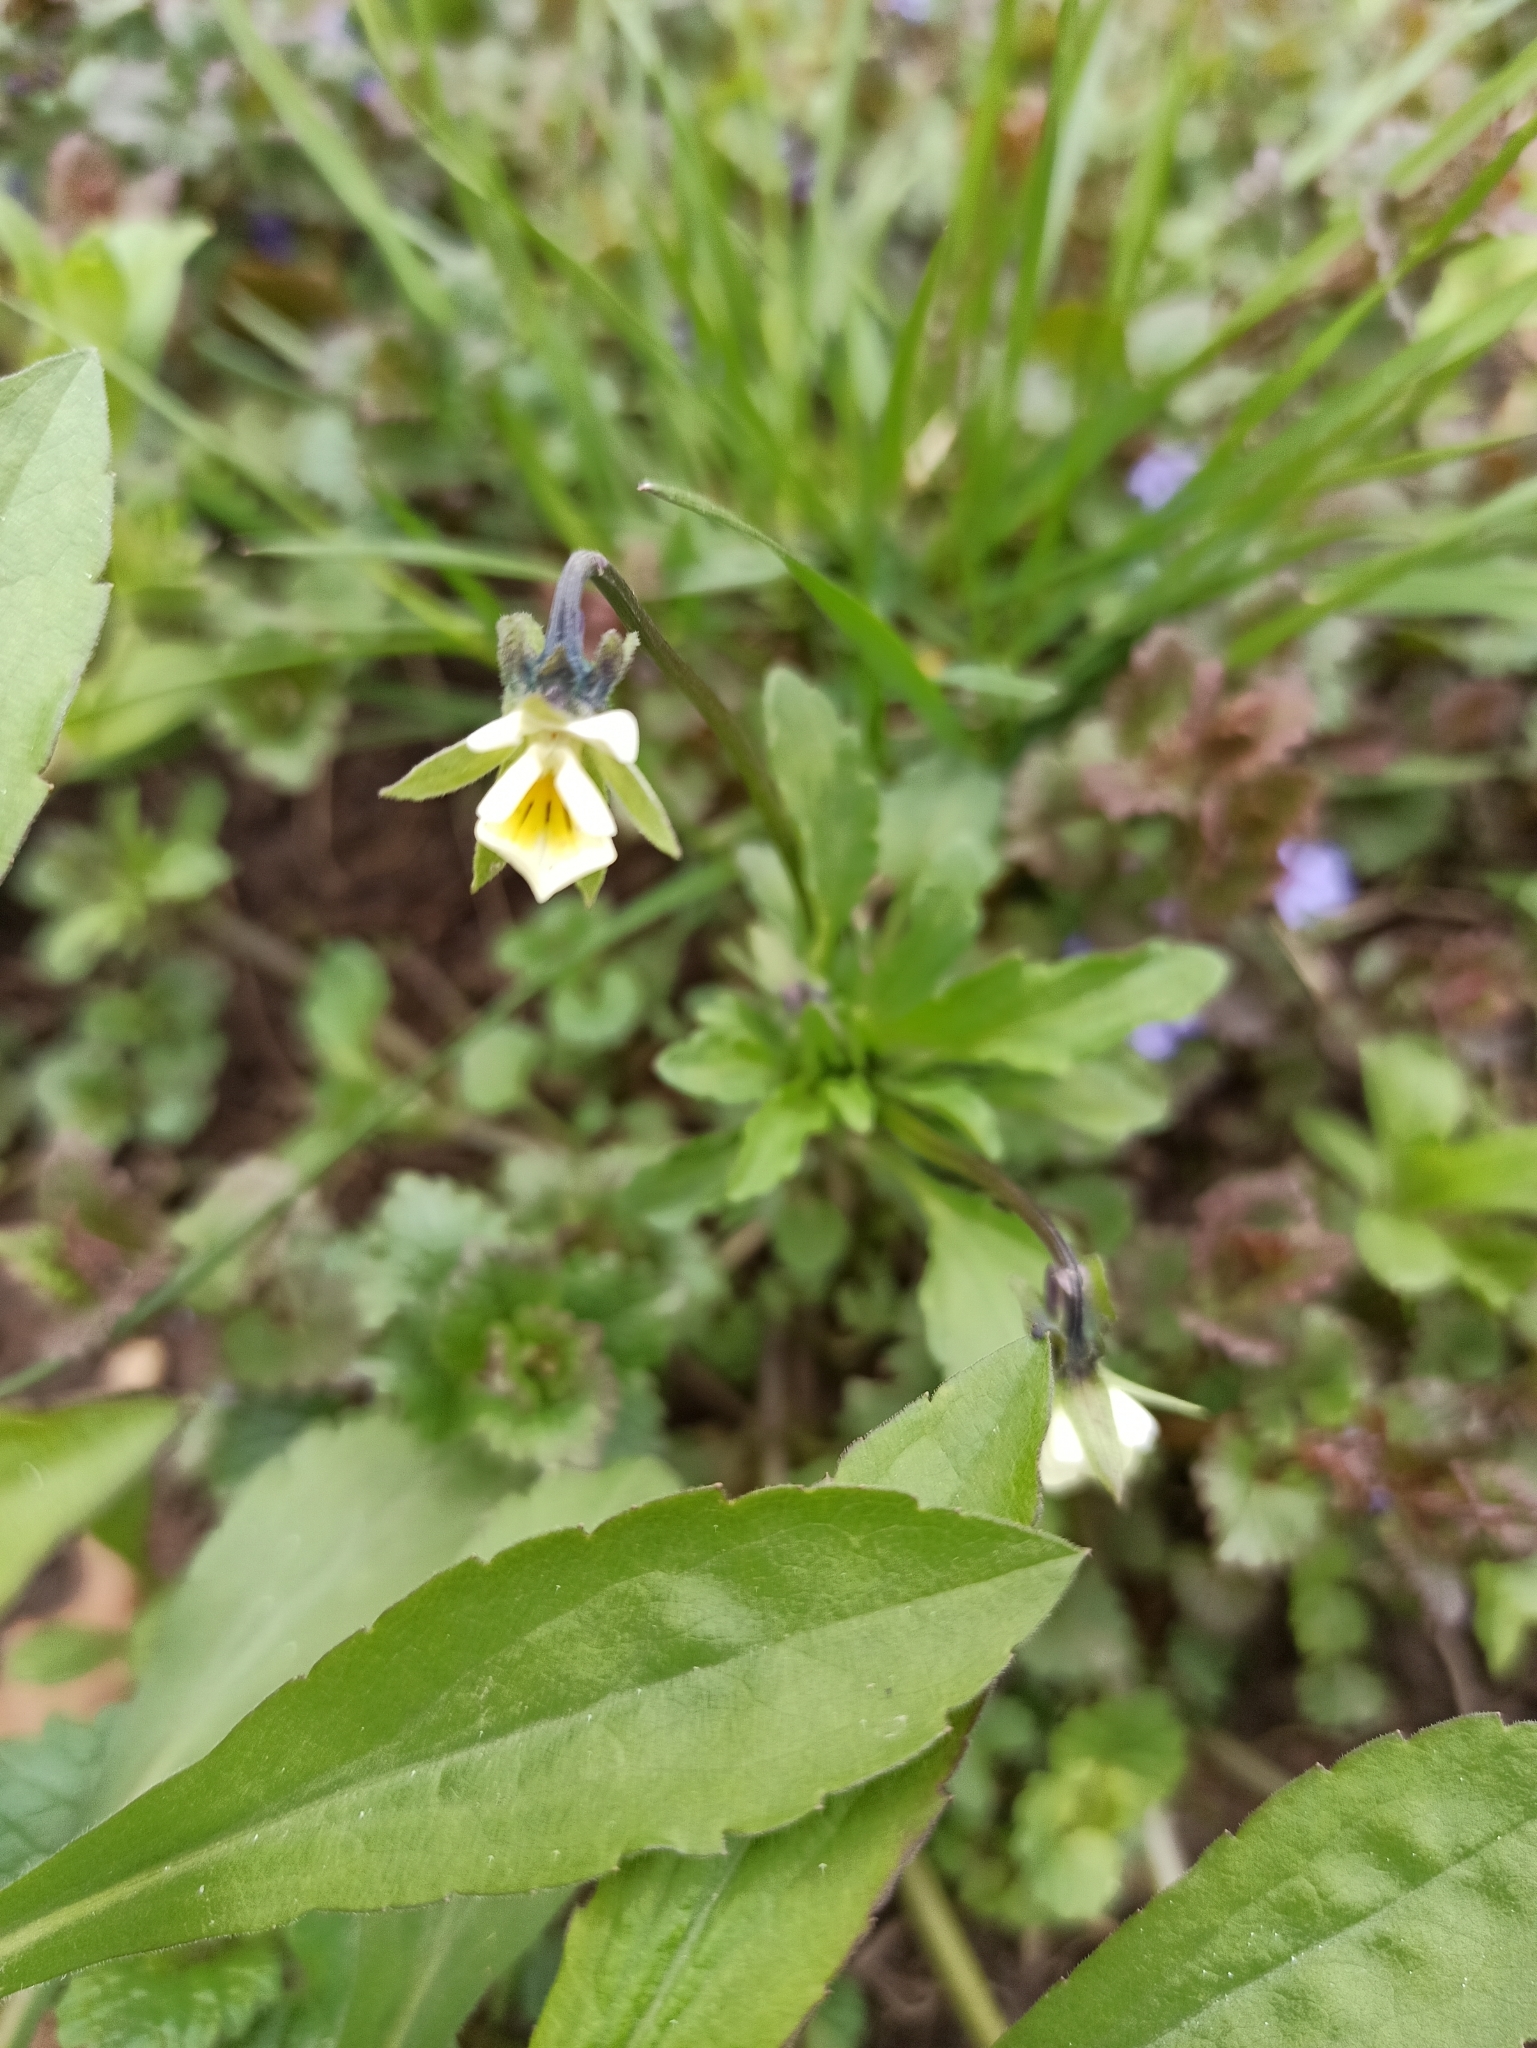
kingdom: Plantae
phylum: Tracheophyta
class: Magnoliopsida
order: Malpighiales
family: Violaceae
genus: Viola
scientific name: Viola arvensis
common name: Field pansy
